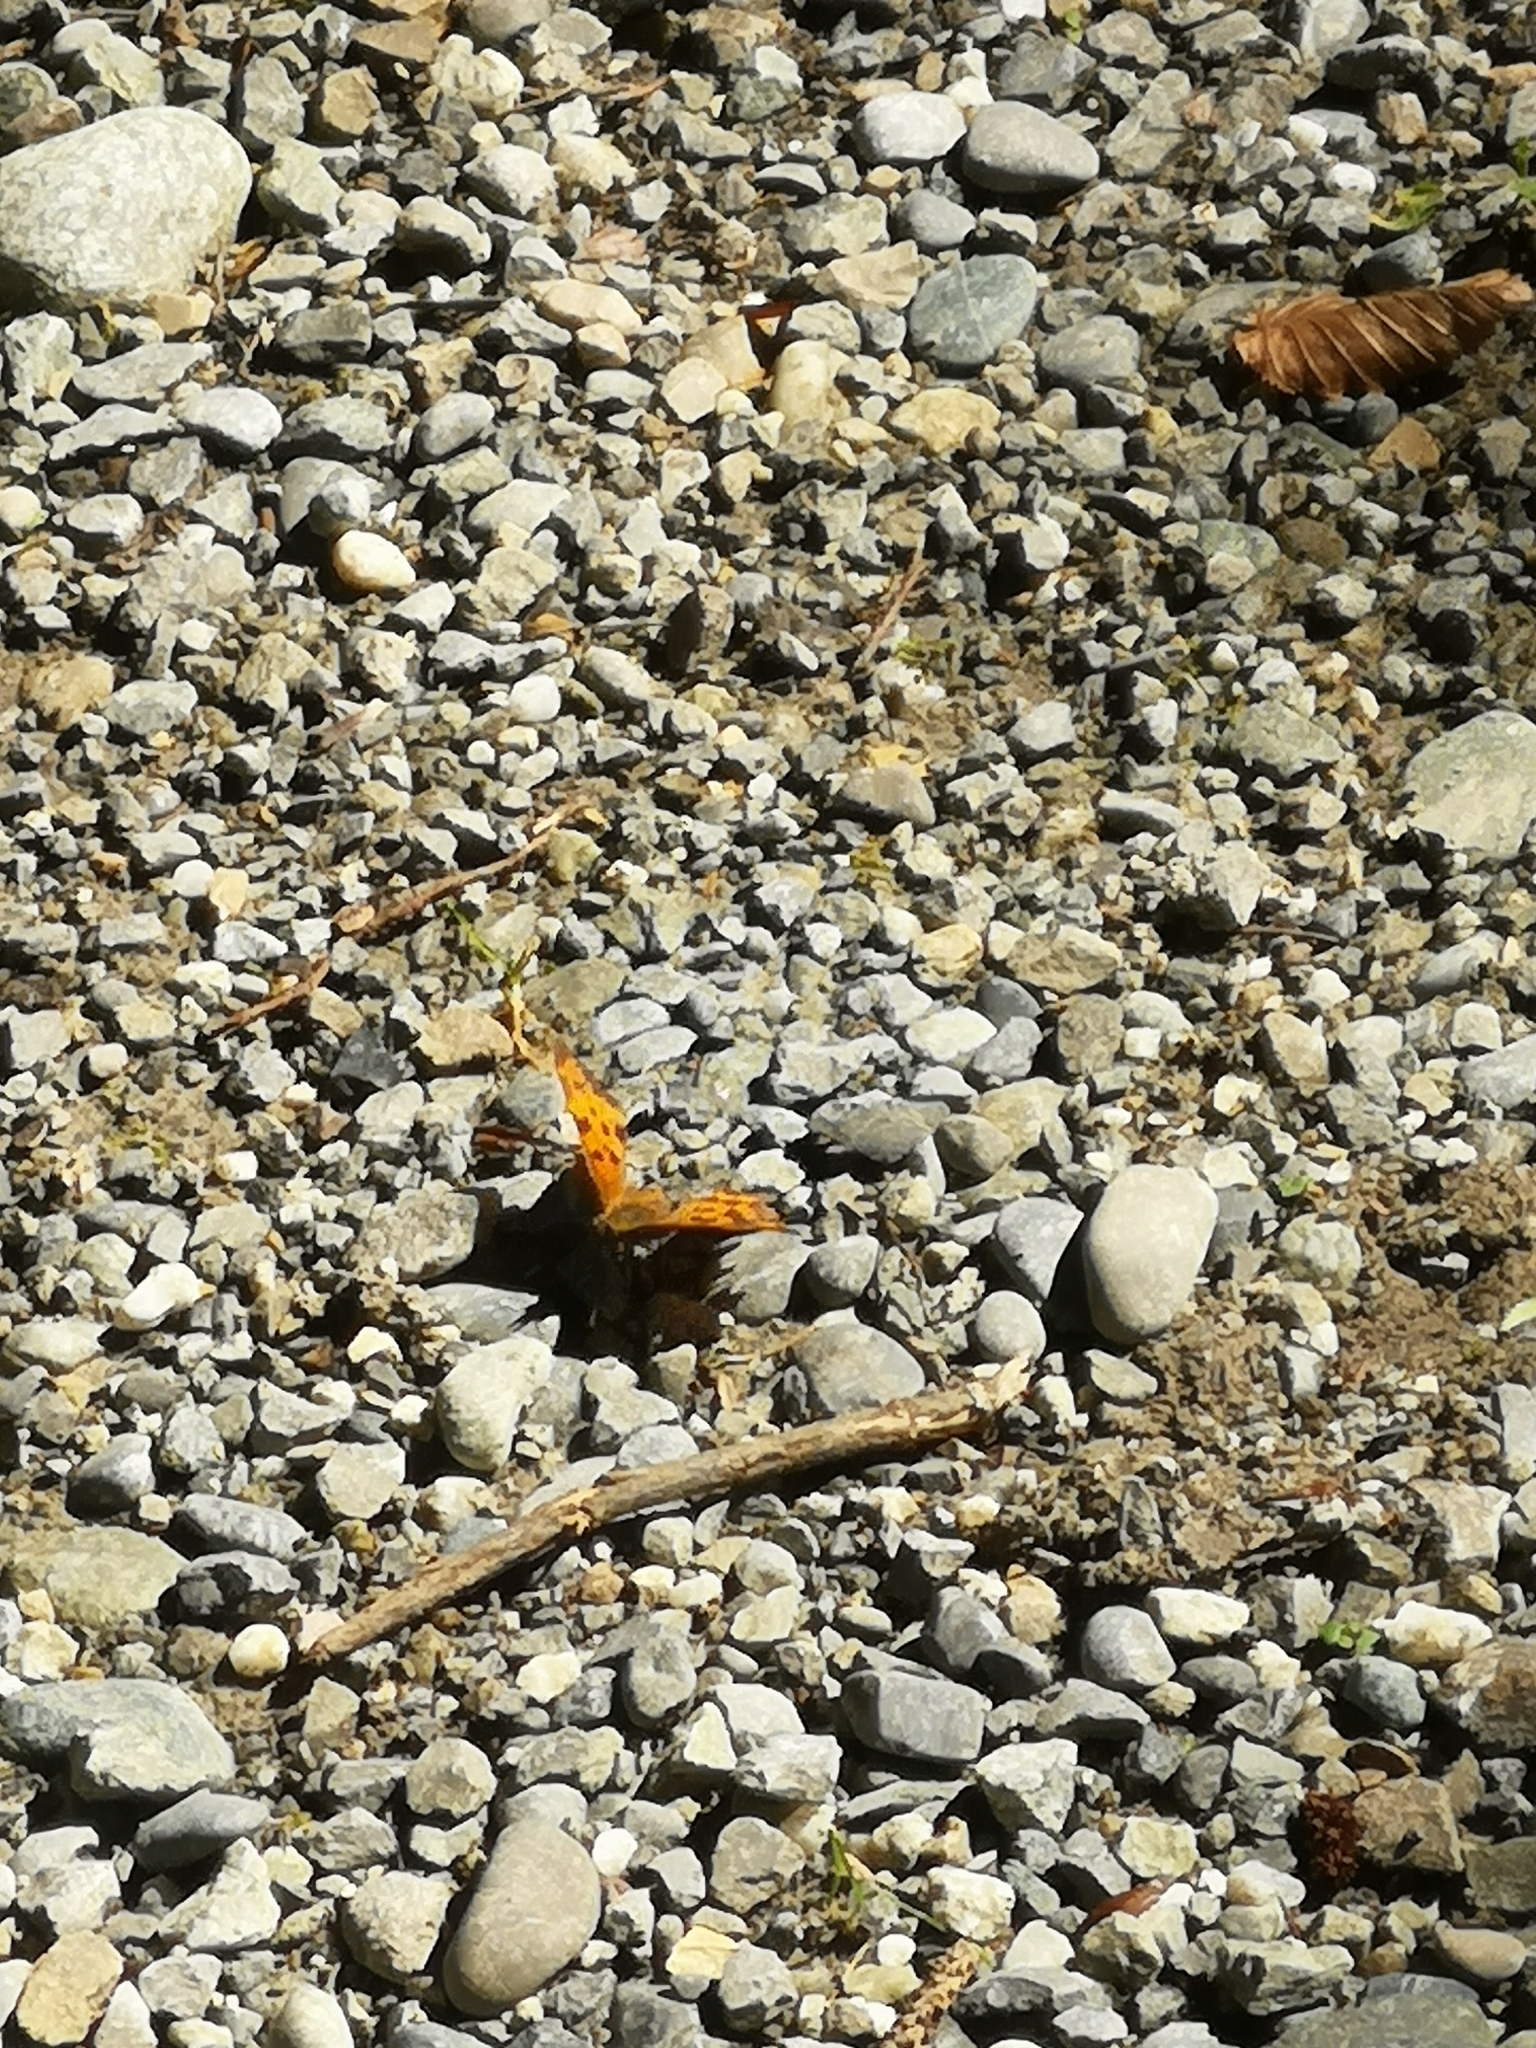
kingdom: Animalia
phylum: Arthropoda
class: Insecta
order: Lepidoptera
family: Nymphalidae
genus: Polygonia
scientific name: Polygonia c-album
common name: Comma
